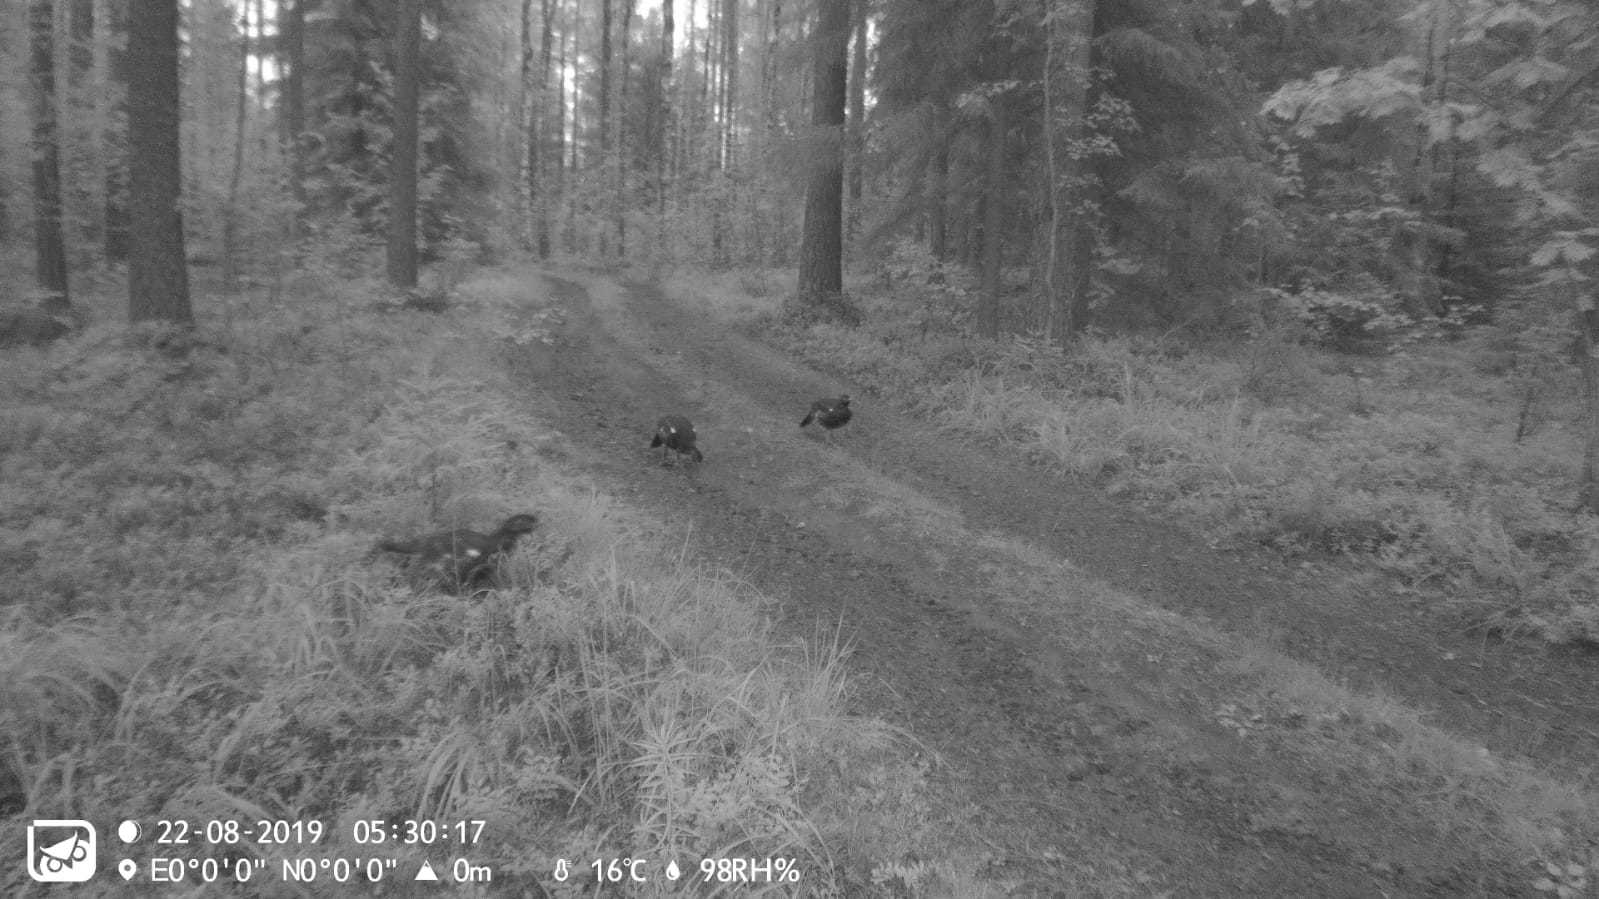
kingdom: Animalia
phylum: Chordata
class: Aves
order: Galliformes
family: Phasianidae
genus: Tetrao
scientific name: Tetrao urogallus
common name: Western capercaillie
